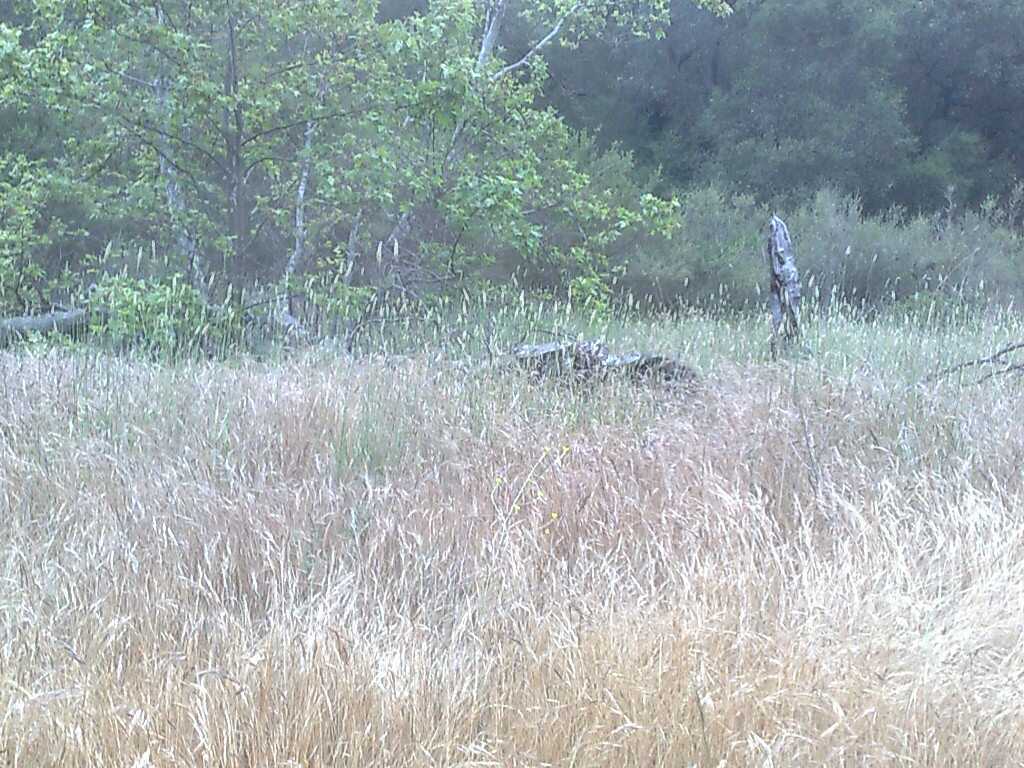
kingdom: Plantae
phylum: Tracheophyta
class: Magnoliopsida
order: Proteales
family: Platanaceae
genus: Platanus
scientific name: Platanus racemosa
